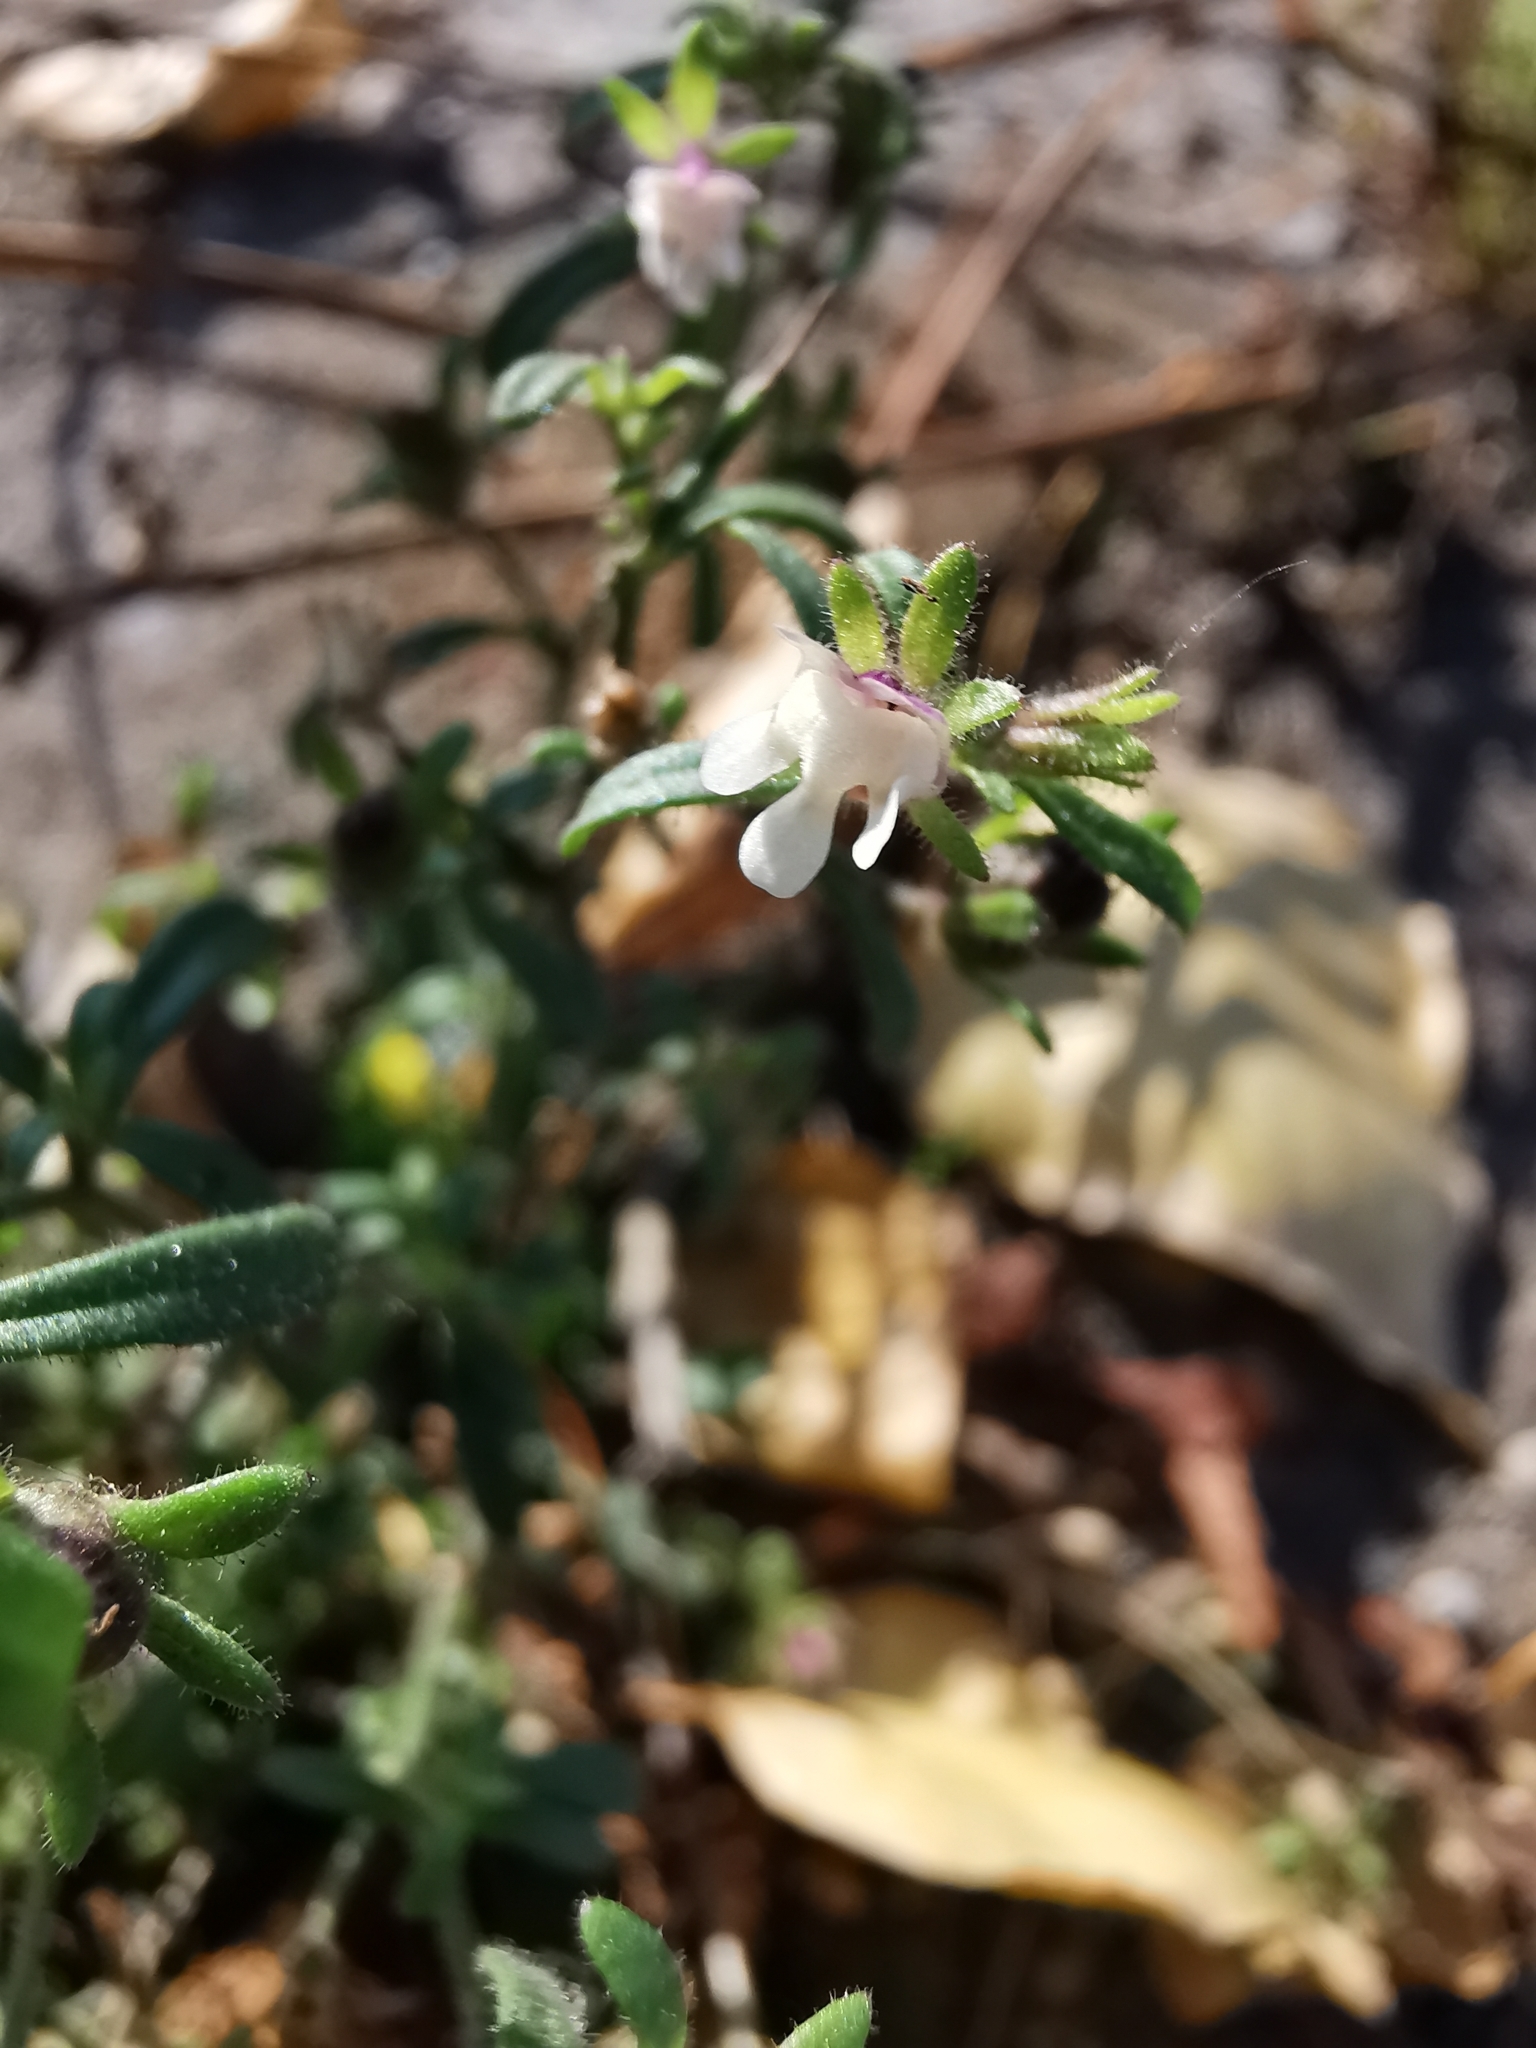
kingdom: Plantae
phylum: Tracheophyta
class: Magnoliopsida
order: Lamiales
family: Plantaginaceae
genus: Chaenorhinum
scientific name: Chaenorhinum minus
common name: Dwarf snapdragon
